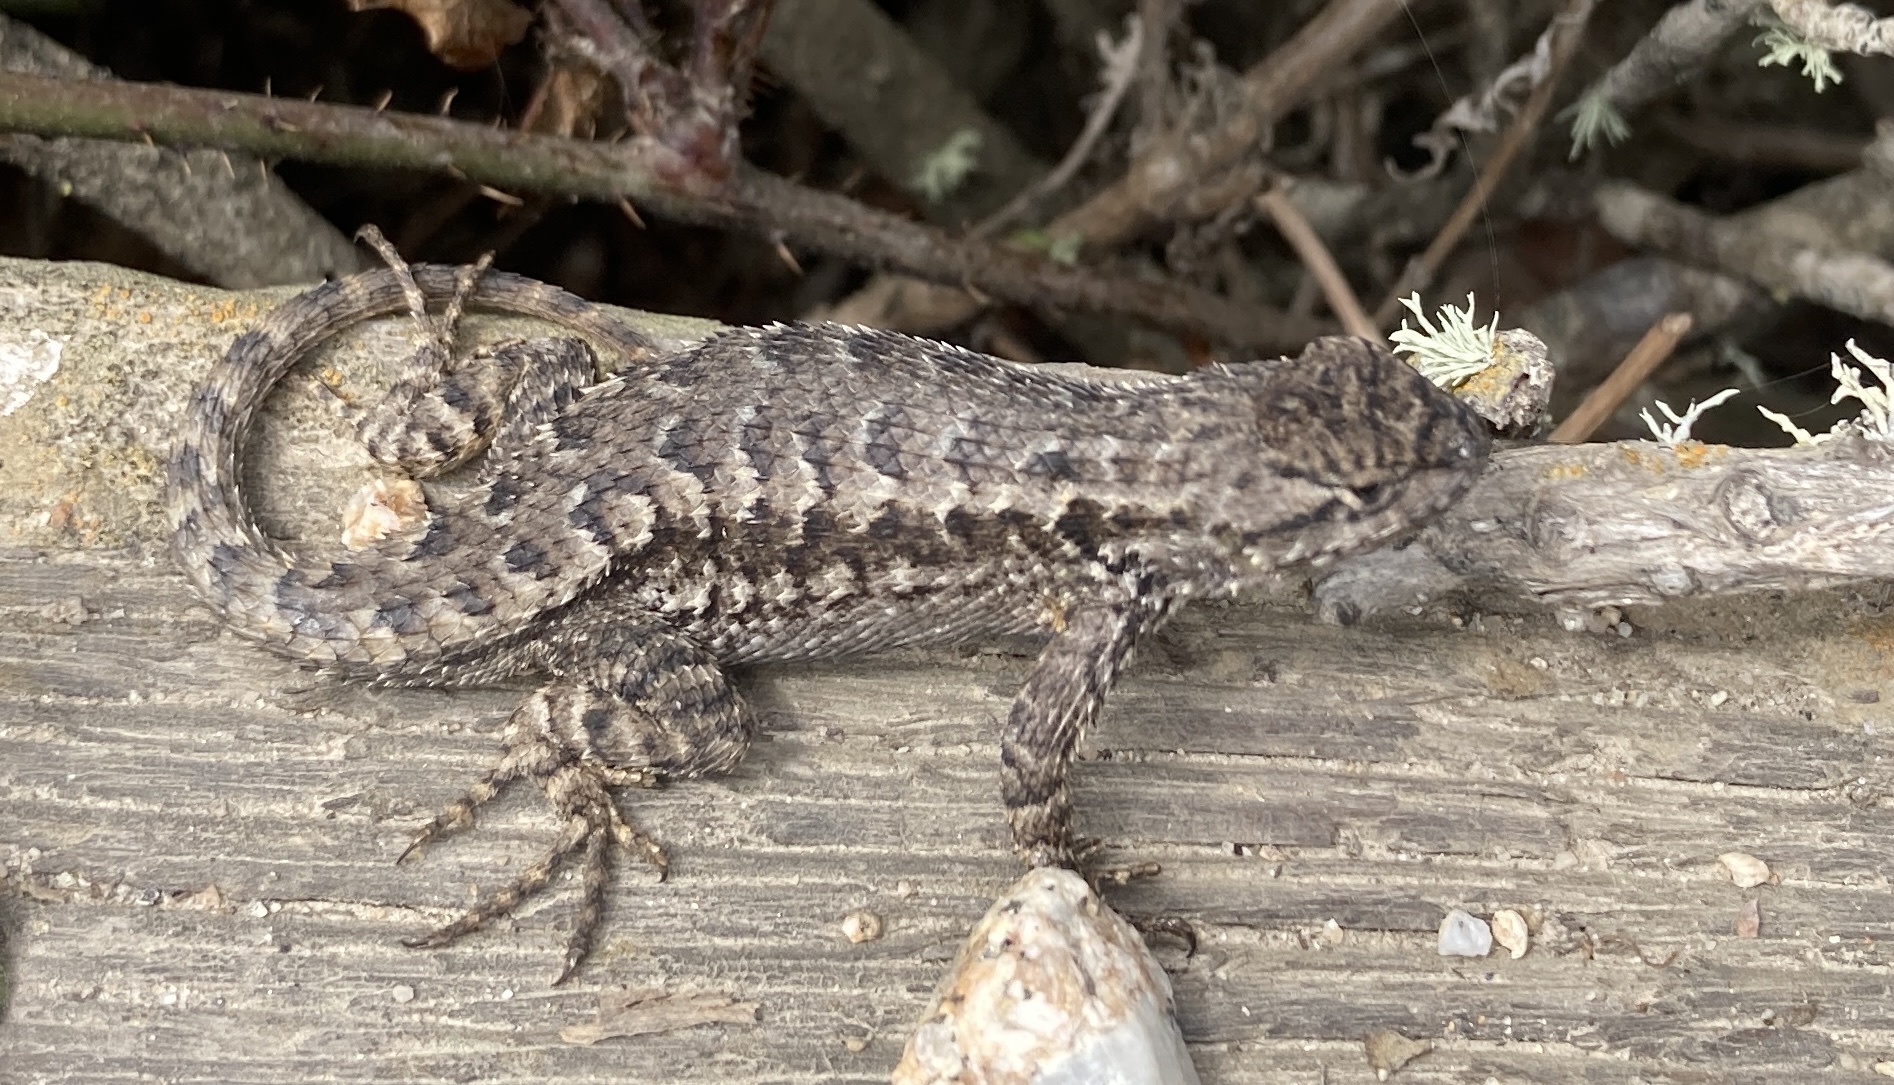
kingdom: Animalia
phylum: Chordata
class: Squamata
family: Phrynosomatidae
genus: Sceloporus
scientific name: Sceloporus occidentalis
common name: Western fence lizard
